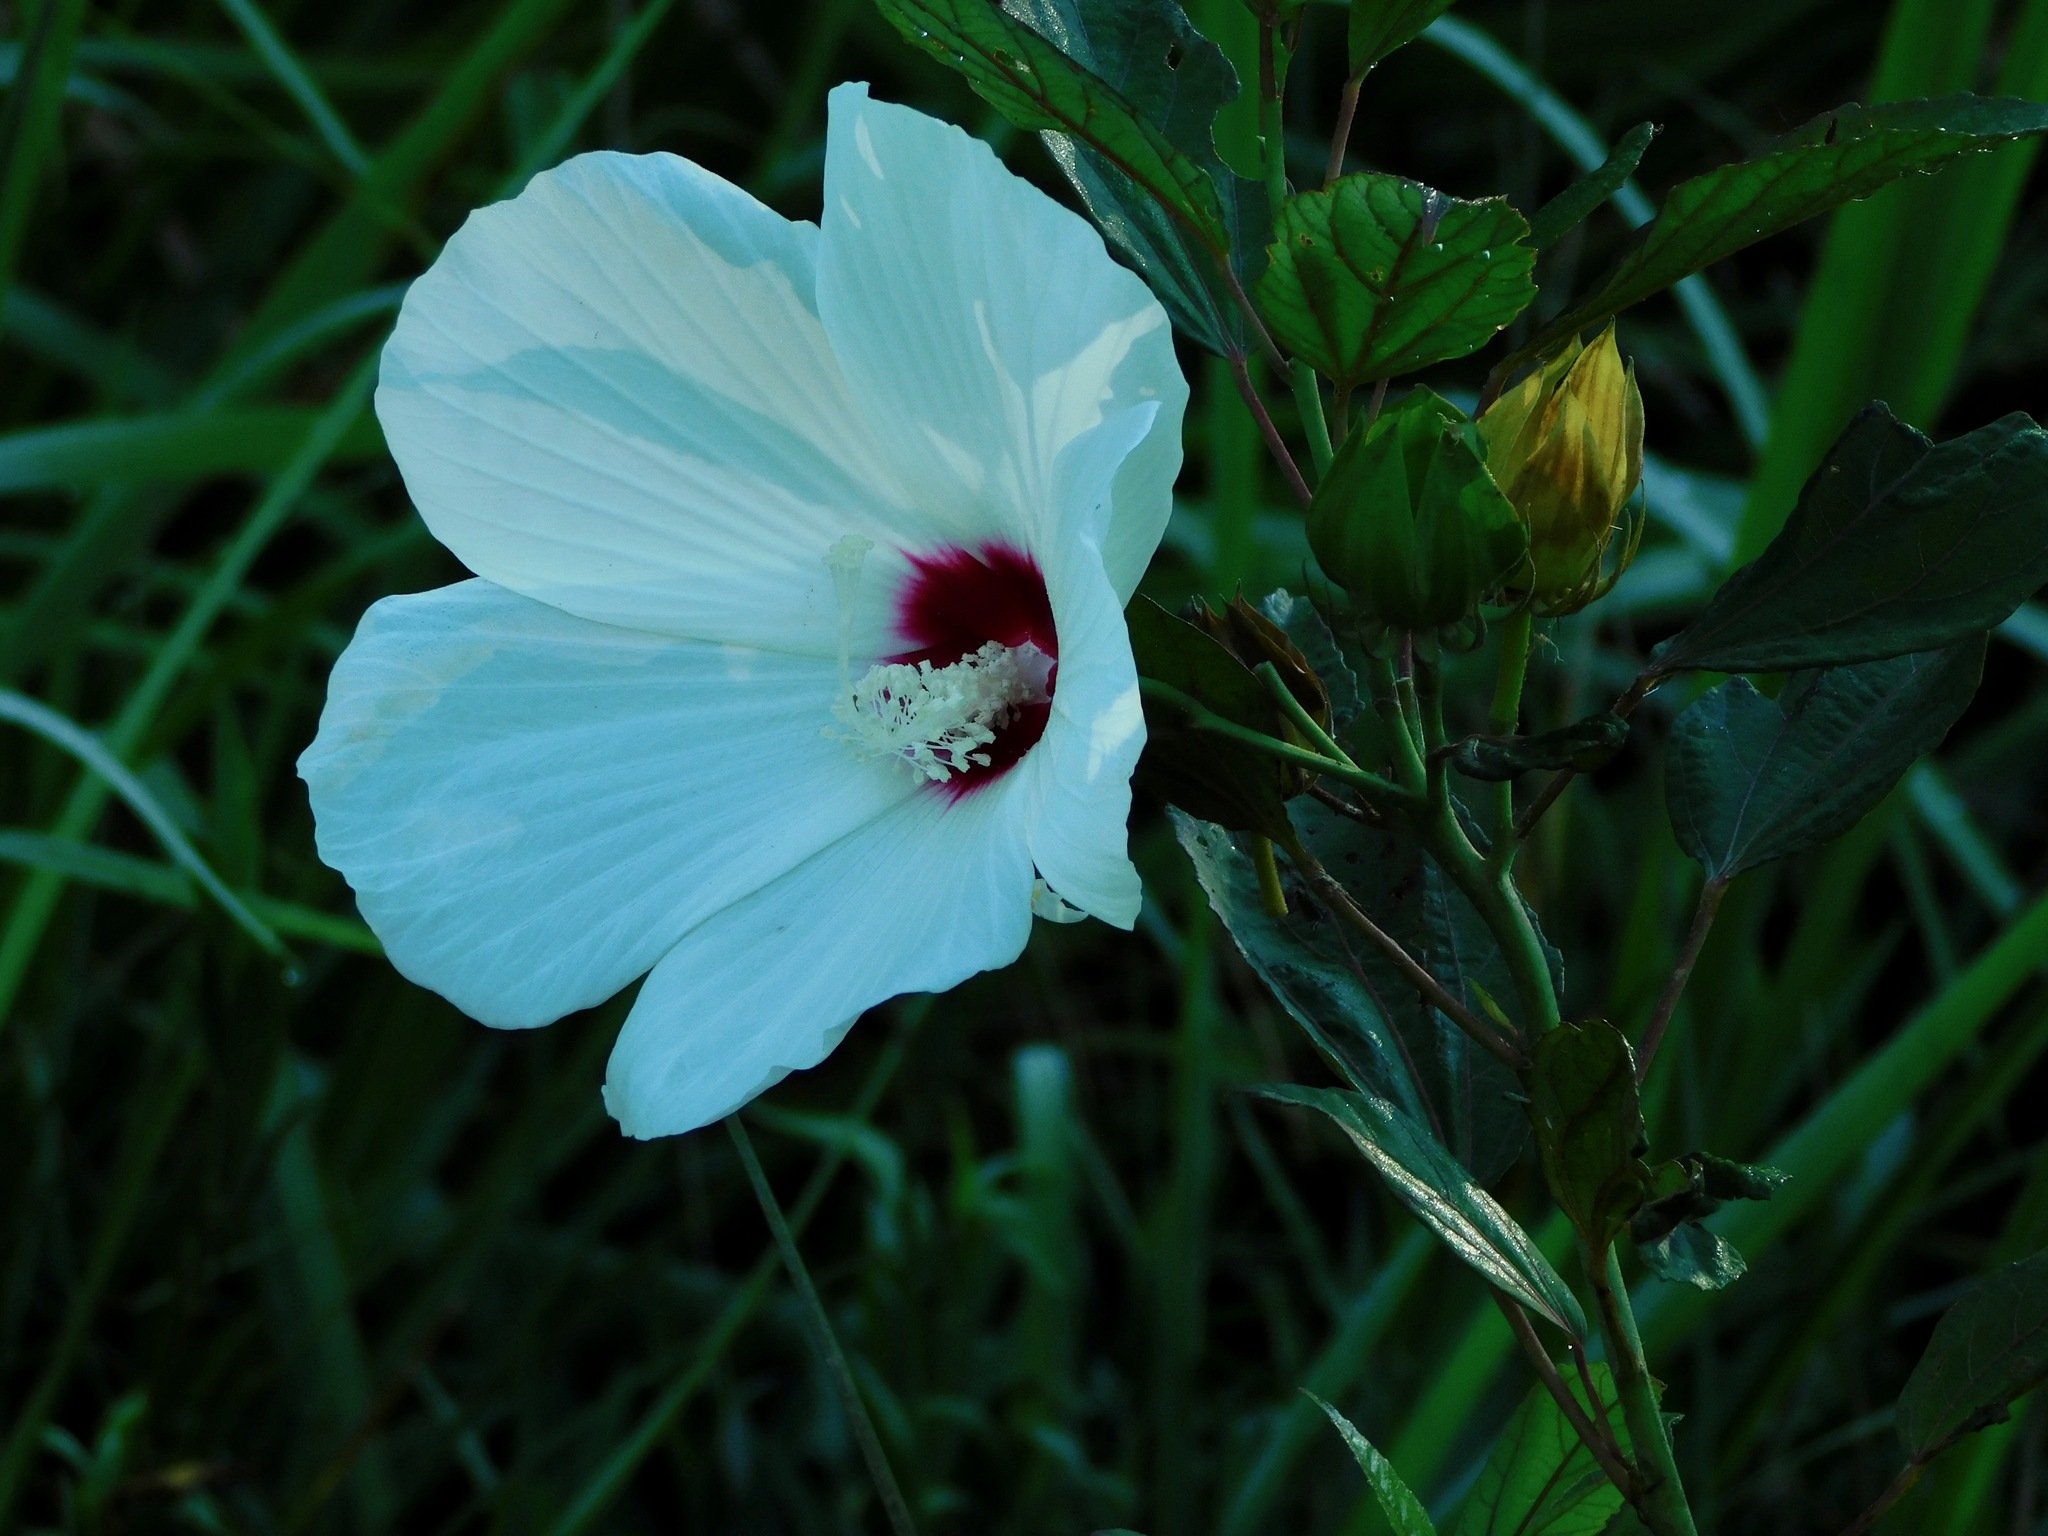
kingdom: Plantae
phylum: Tracheophyta
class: Magnoliopsida
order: Malvales
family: Malvaceae
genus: Hibiscus
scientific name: Hibiscus moscheutos
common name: Common rose-mallow
